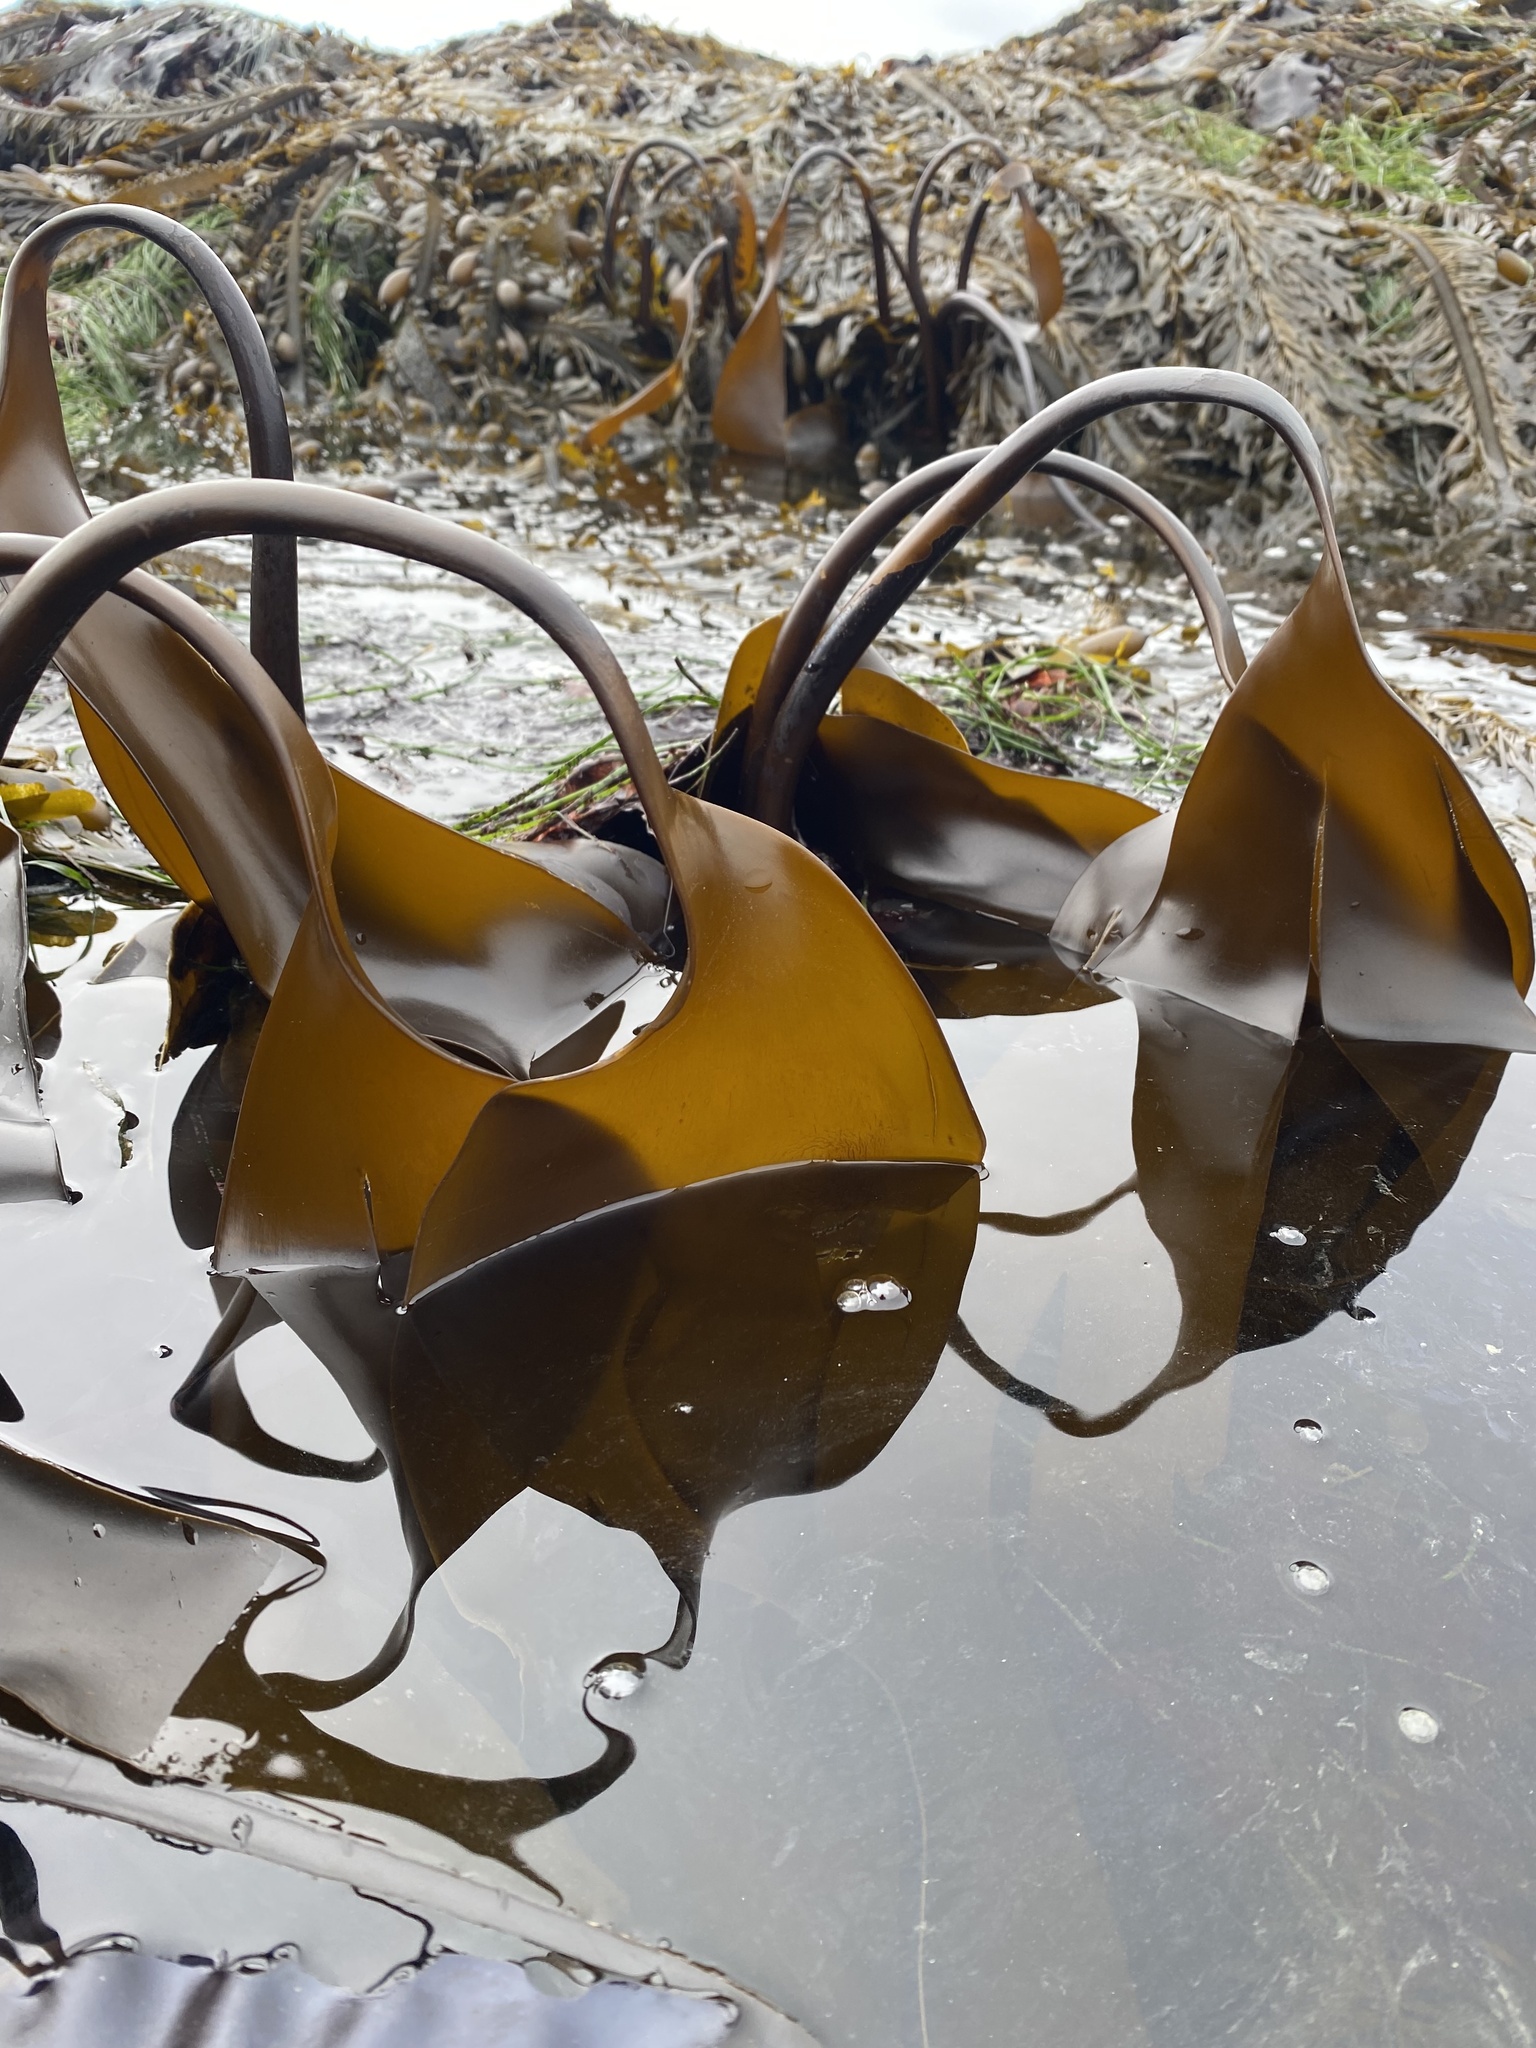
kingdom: Chromista
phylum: Ochrophyta
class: Phaeophyceae
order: Laminariales
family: Laminariaceae
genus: Laminaria
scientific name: Laminaria setchellii
